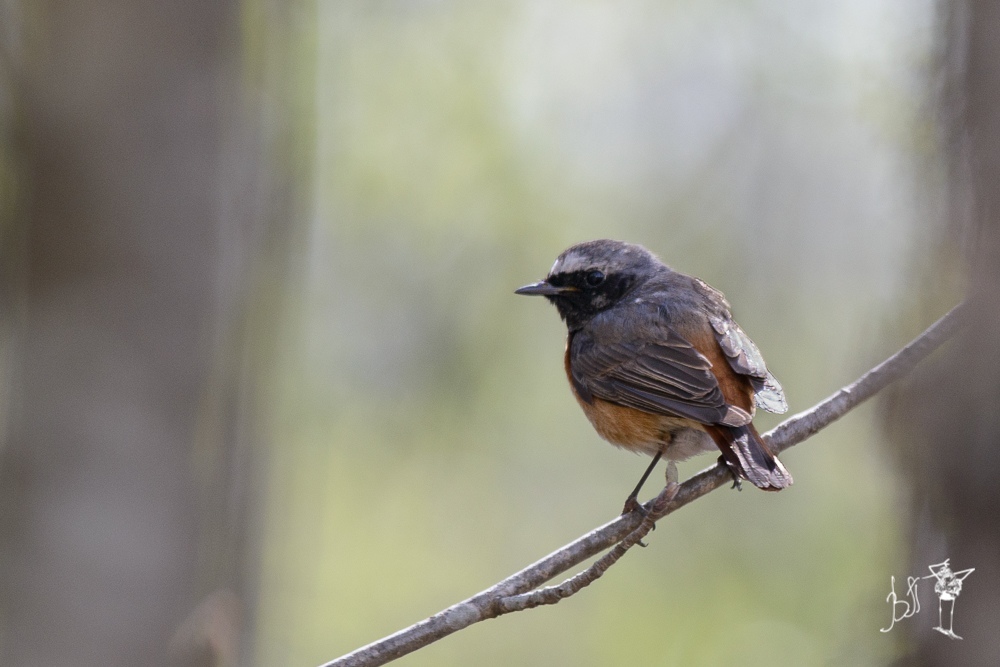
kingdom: Animalia
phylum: Chordata
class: Aves
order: Passeriformes
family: Muscicapidae
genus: Phoenicurus
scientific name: Phoenicurus phoenicurus
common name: Common redstart
